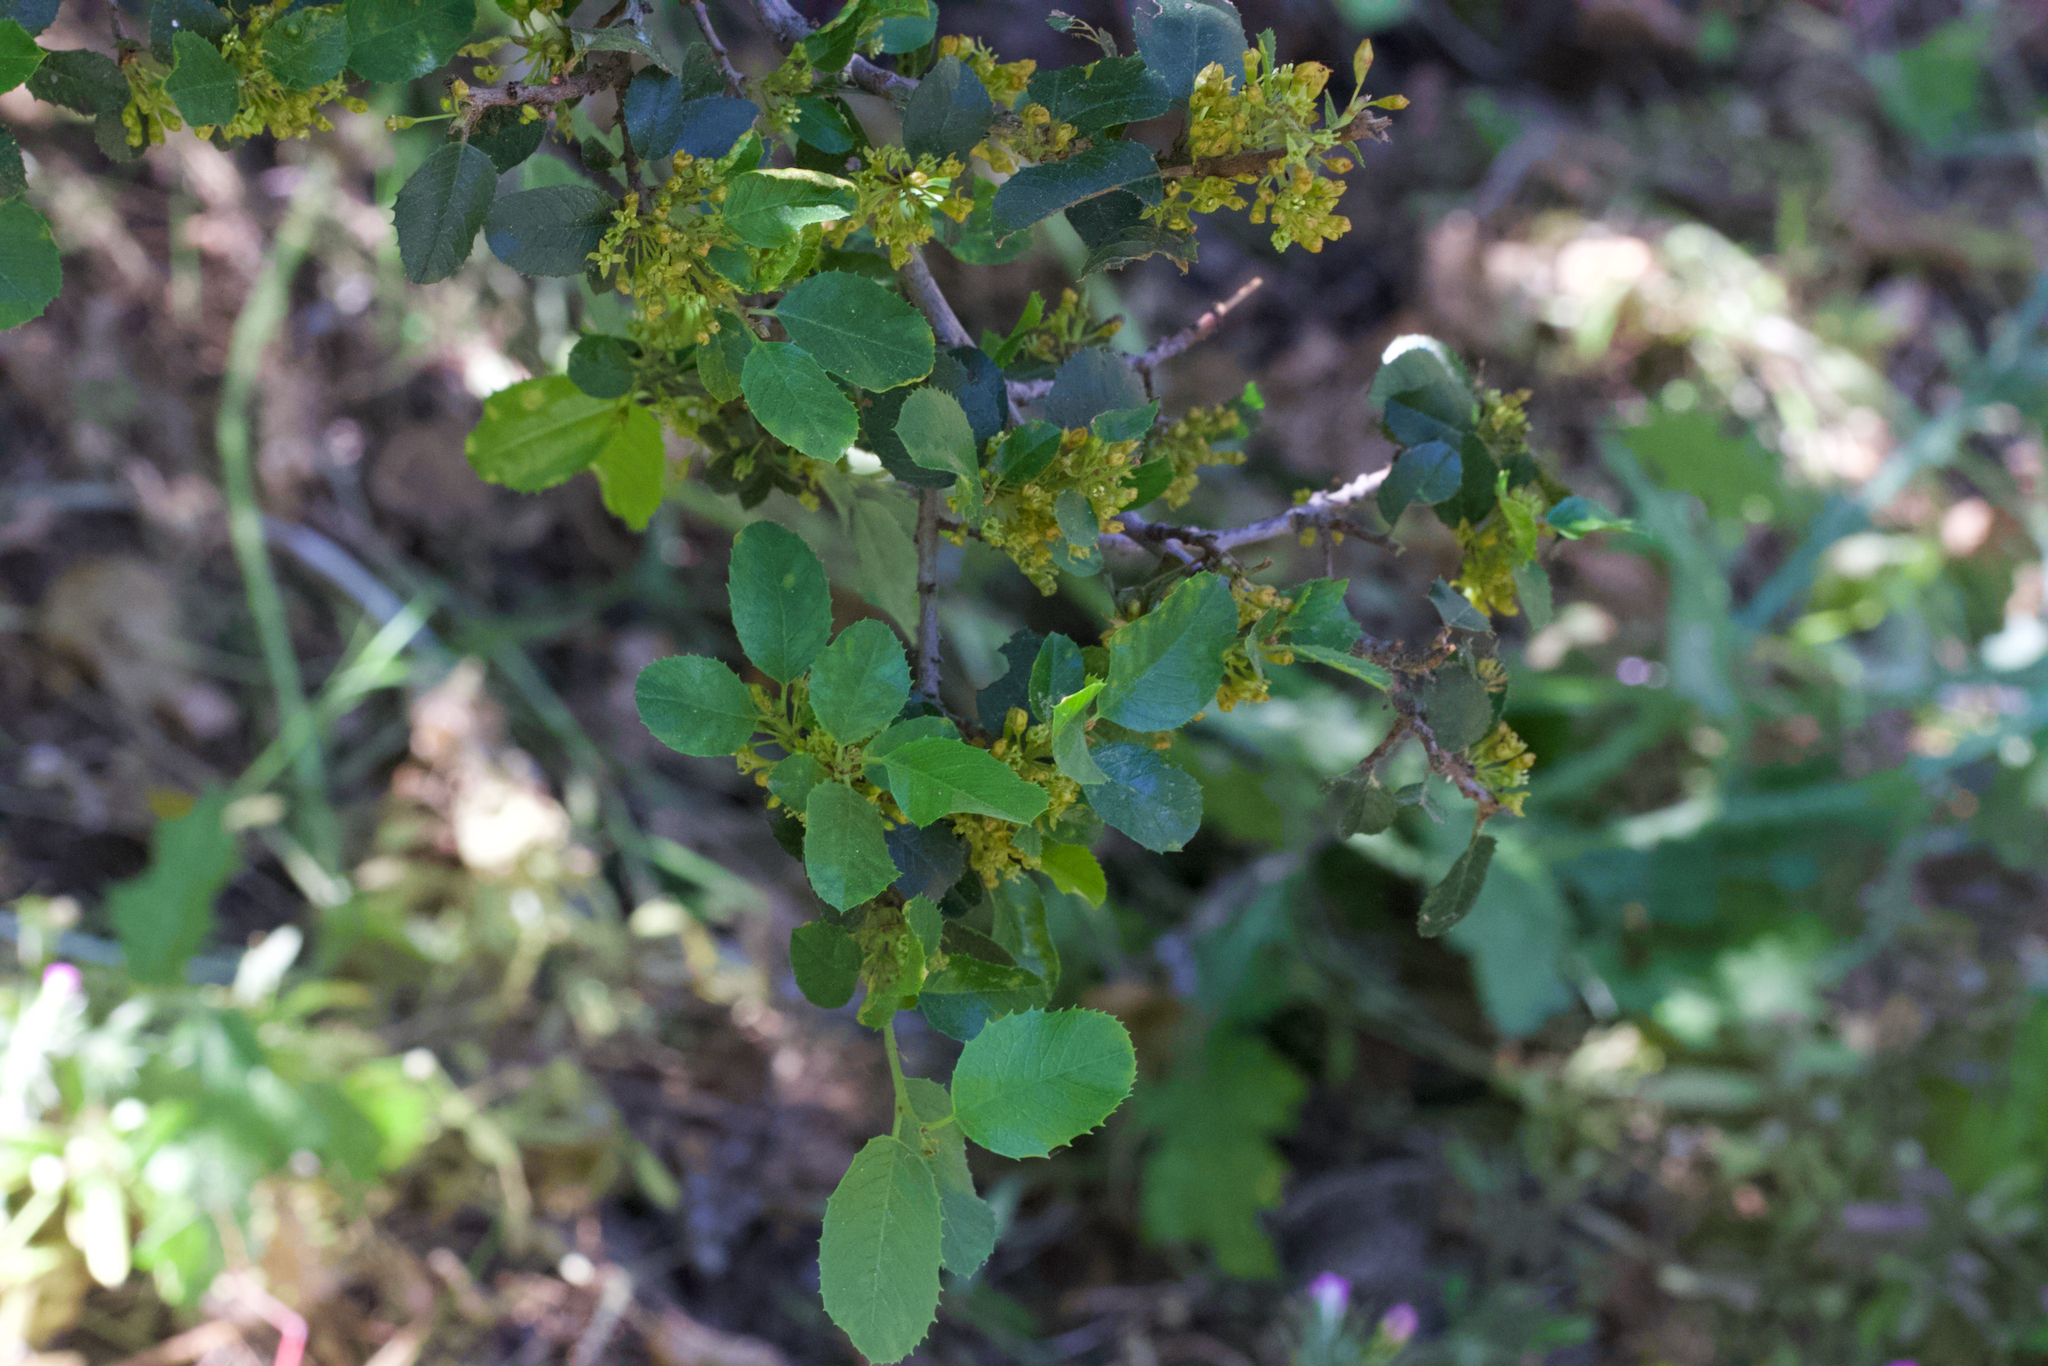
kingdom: Plantae
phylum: Tracheophyta
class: Magnoliopsida
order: Rosales
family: Rhamnaceae
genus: Endotropis
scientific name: Endotropis crocea
